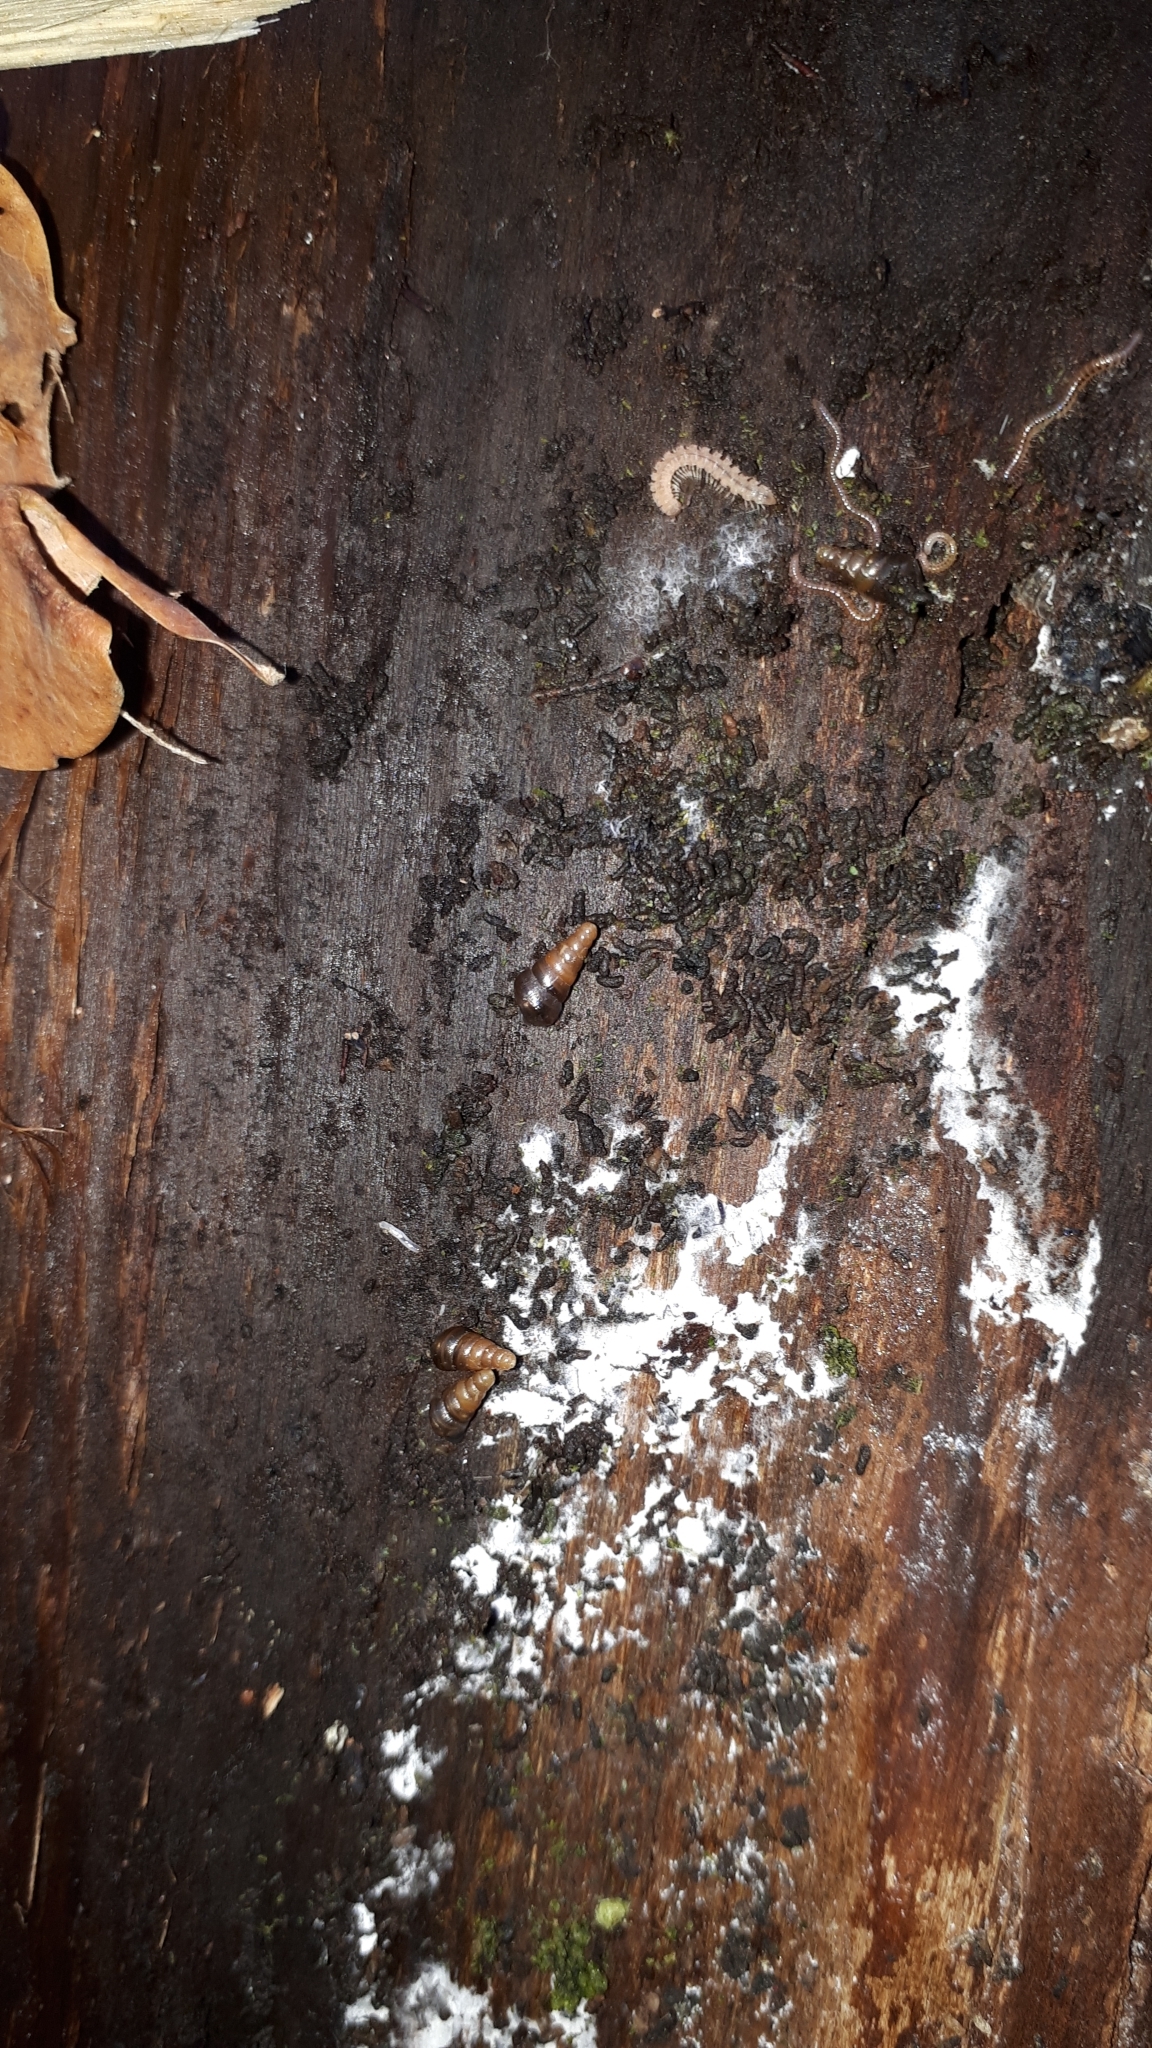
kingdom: Animalia
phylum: Mollusca
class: Gastropoda
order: Stylommatophora
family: Clausiliidae
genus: Cochlodina
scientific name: Cochlodina laminata
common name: Plaited door snail
